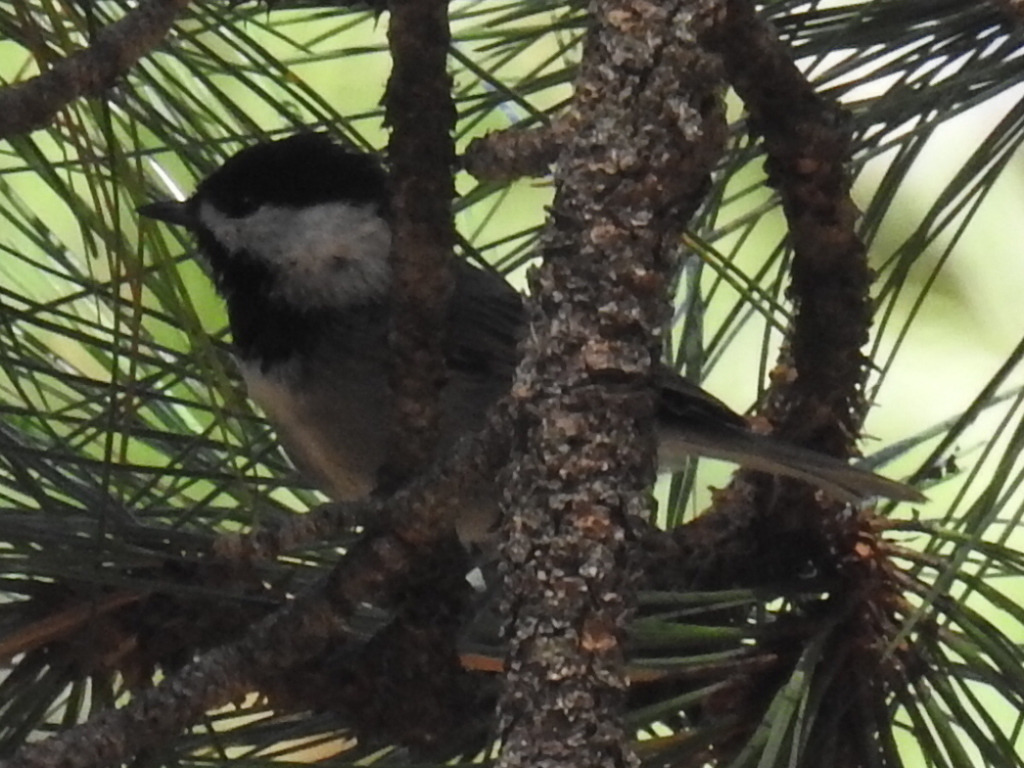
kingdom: Animalia
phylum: Chordata
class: Aves
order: Passeriformes
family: Paridae
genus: Poecile
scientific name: Poecile sclateri
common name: Mexican chickadee
